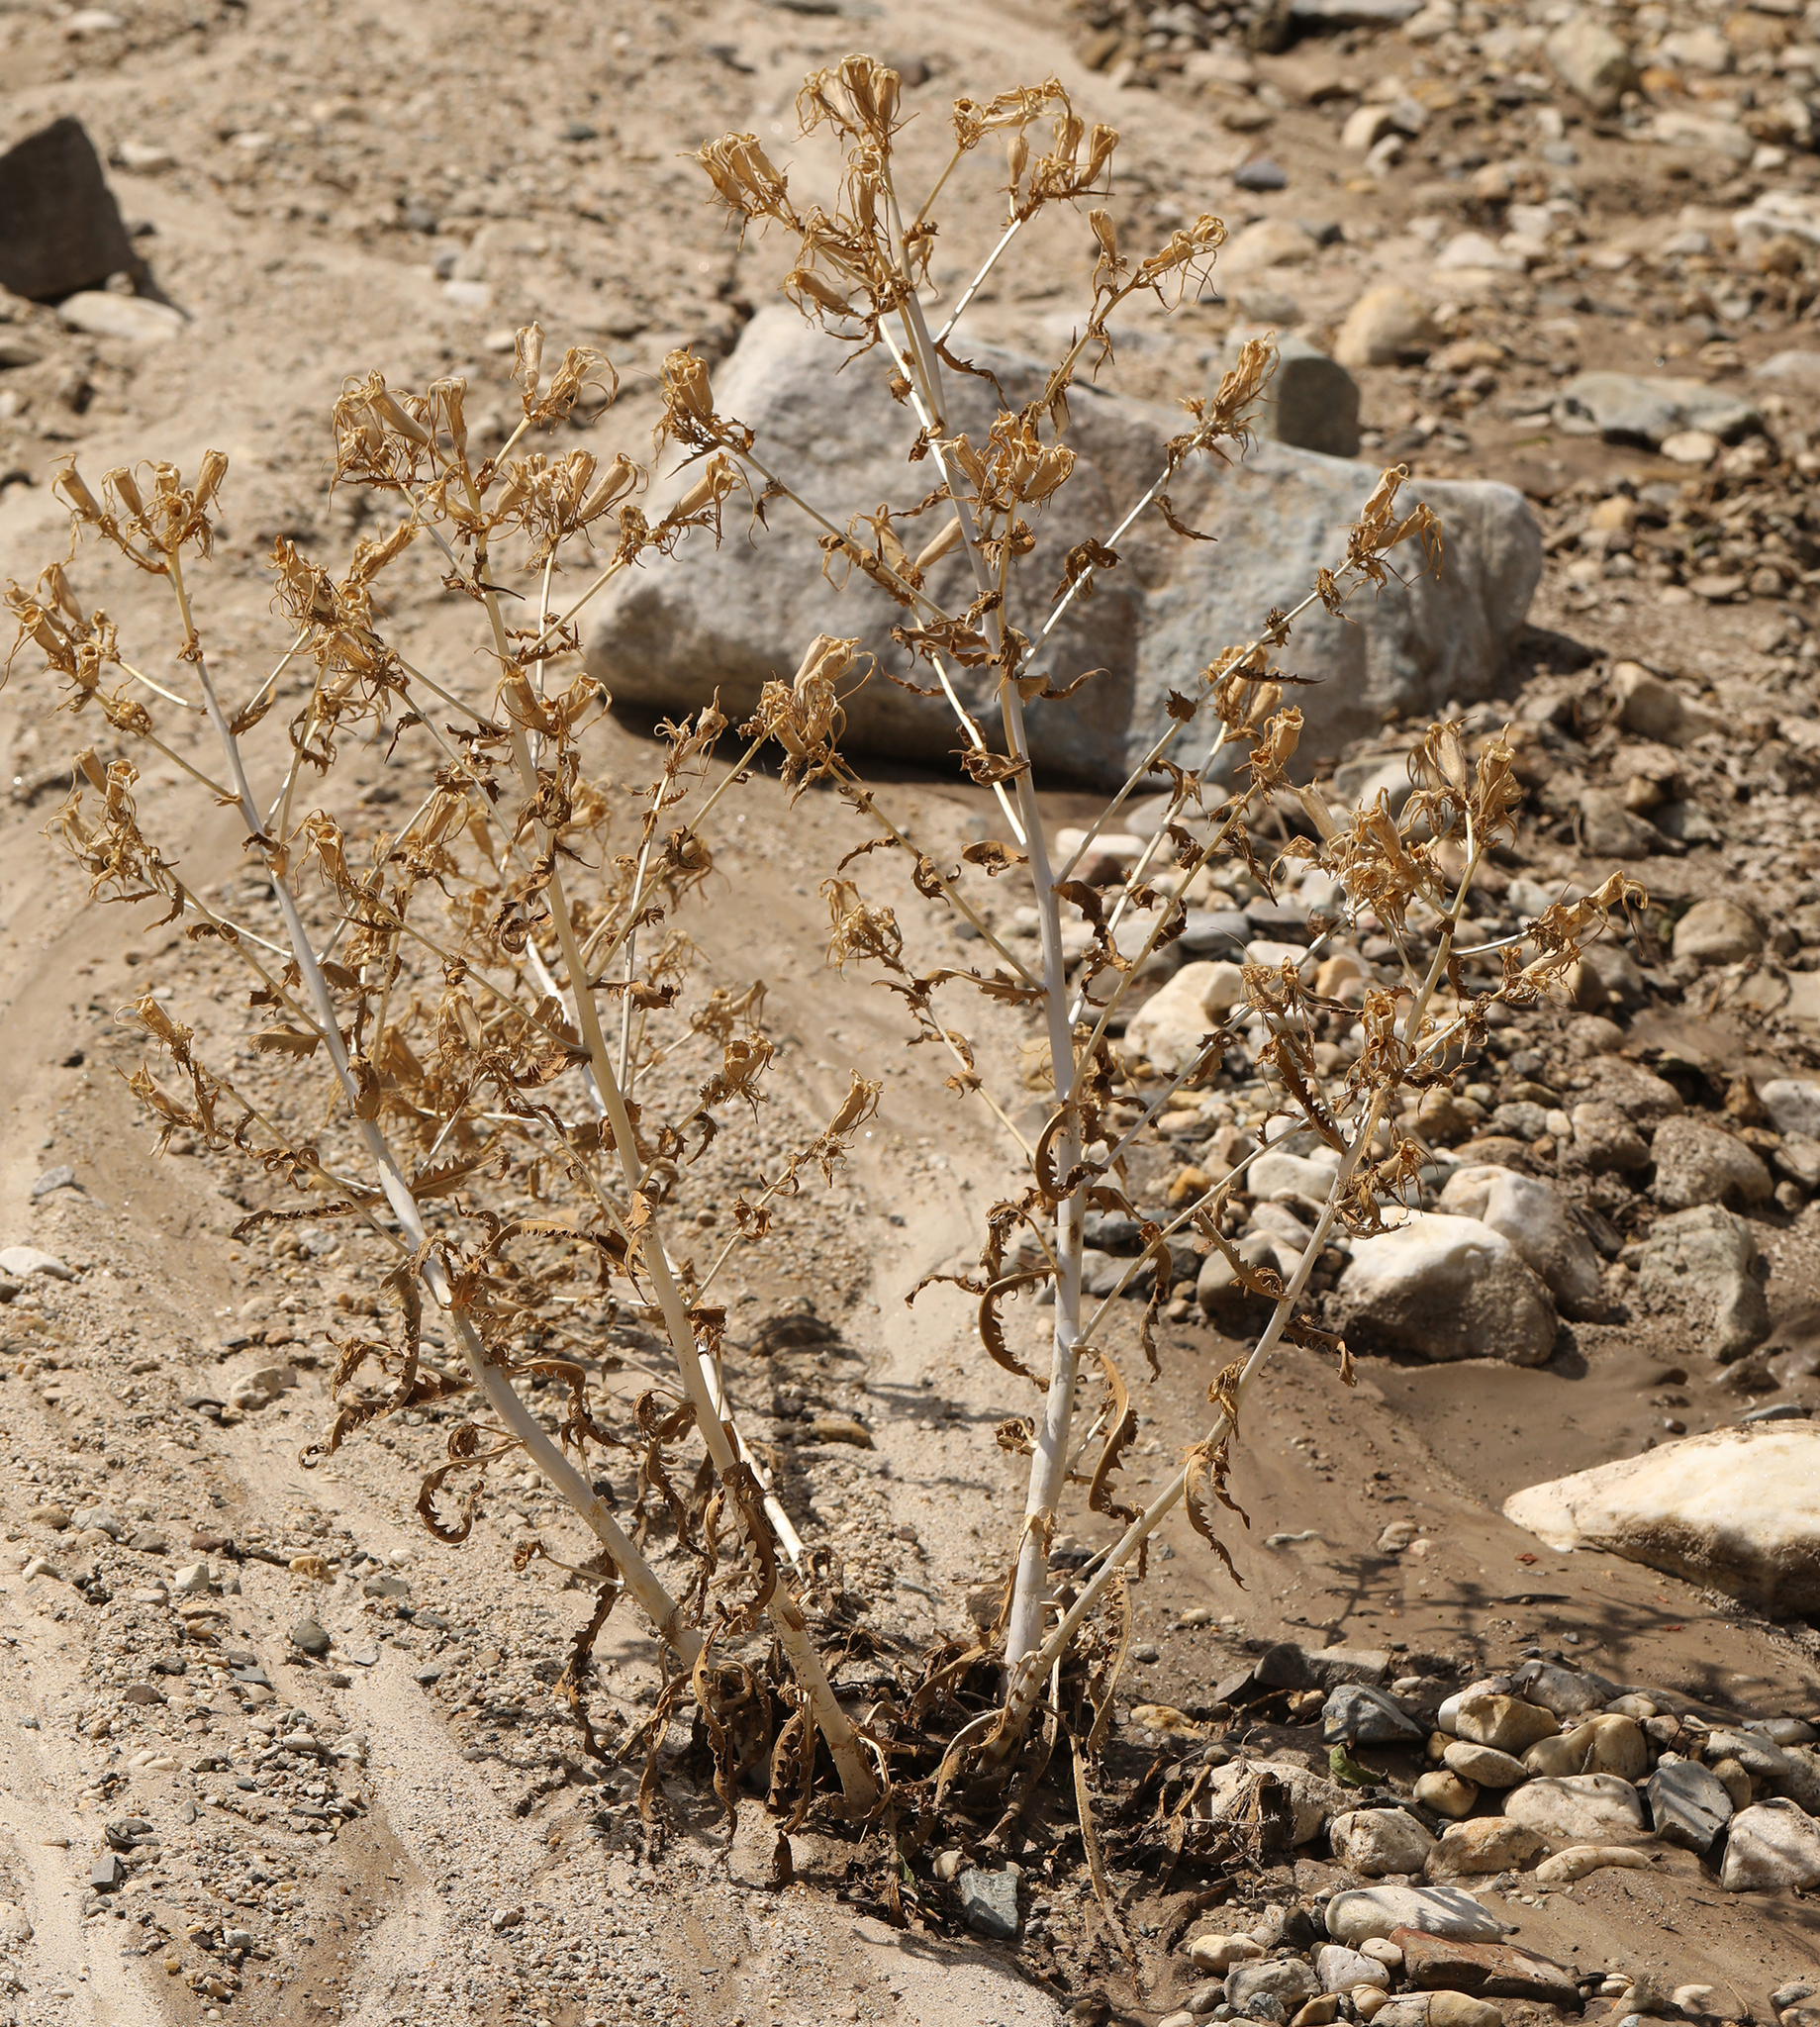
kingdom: Plantae
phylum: Tracheophyta
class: Magnoliopsida
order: Cornales
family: Loasaceae
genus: Mentzelia
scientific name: Mentzelia laevicaulis
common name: Smooth-stem blazingstar
